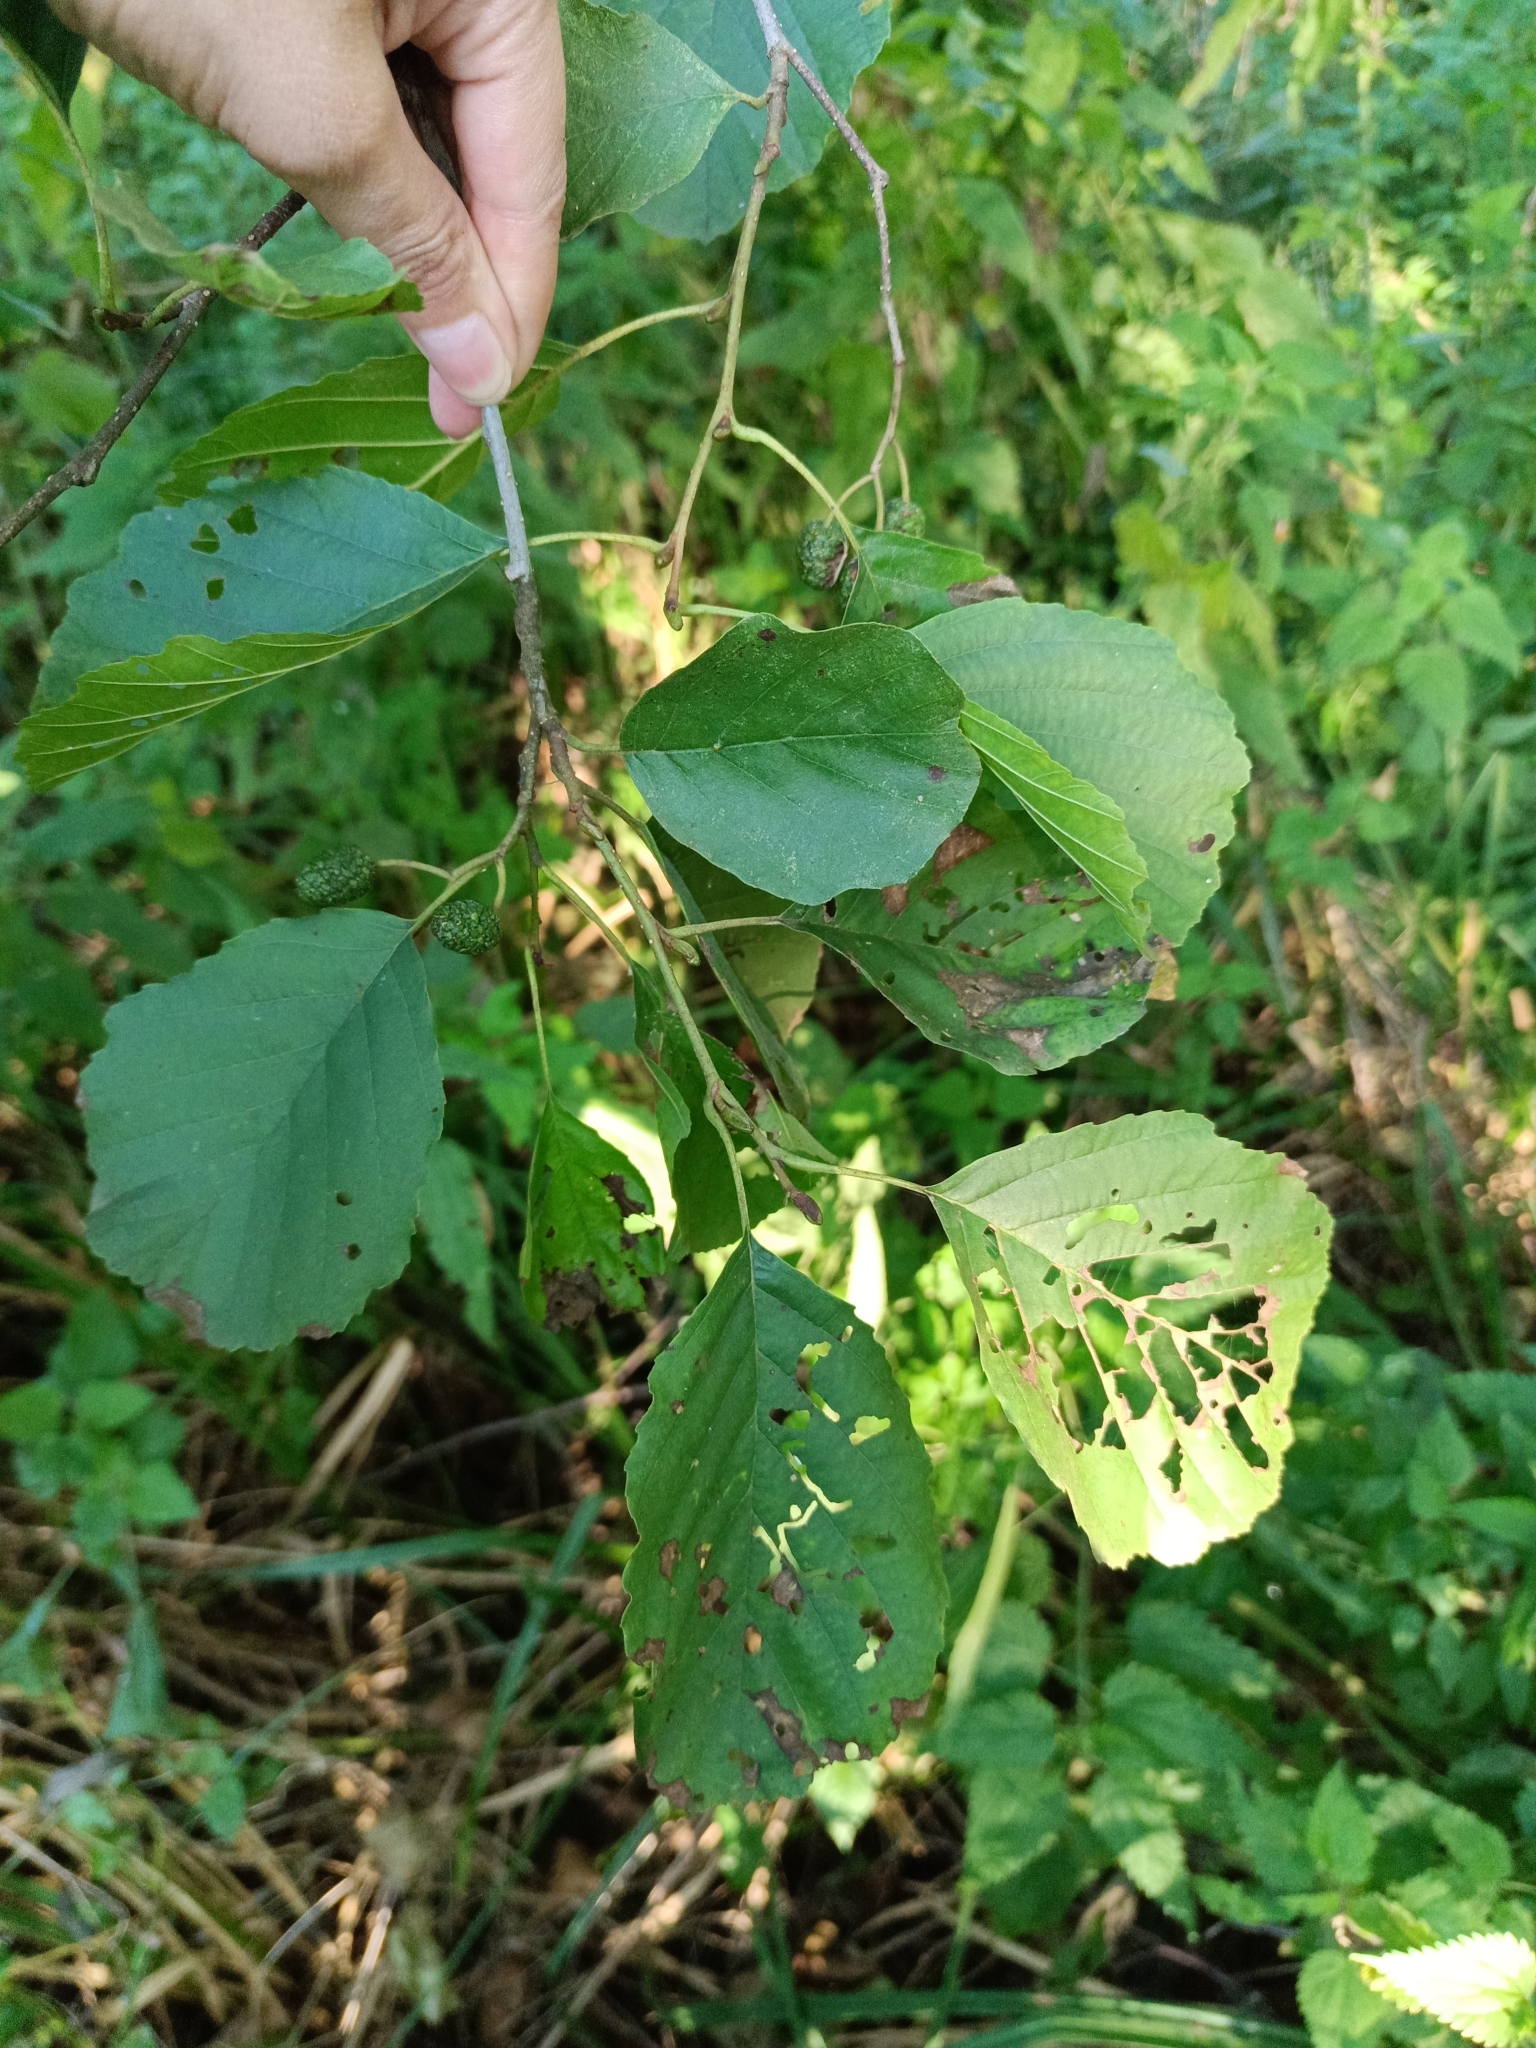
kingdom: Plantae
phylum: Tracheophyta
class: Magnoliopsida
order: Fagales
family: Betulaceae
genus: Alnus
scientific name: Alnus glutinosa
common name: Black alder
